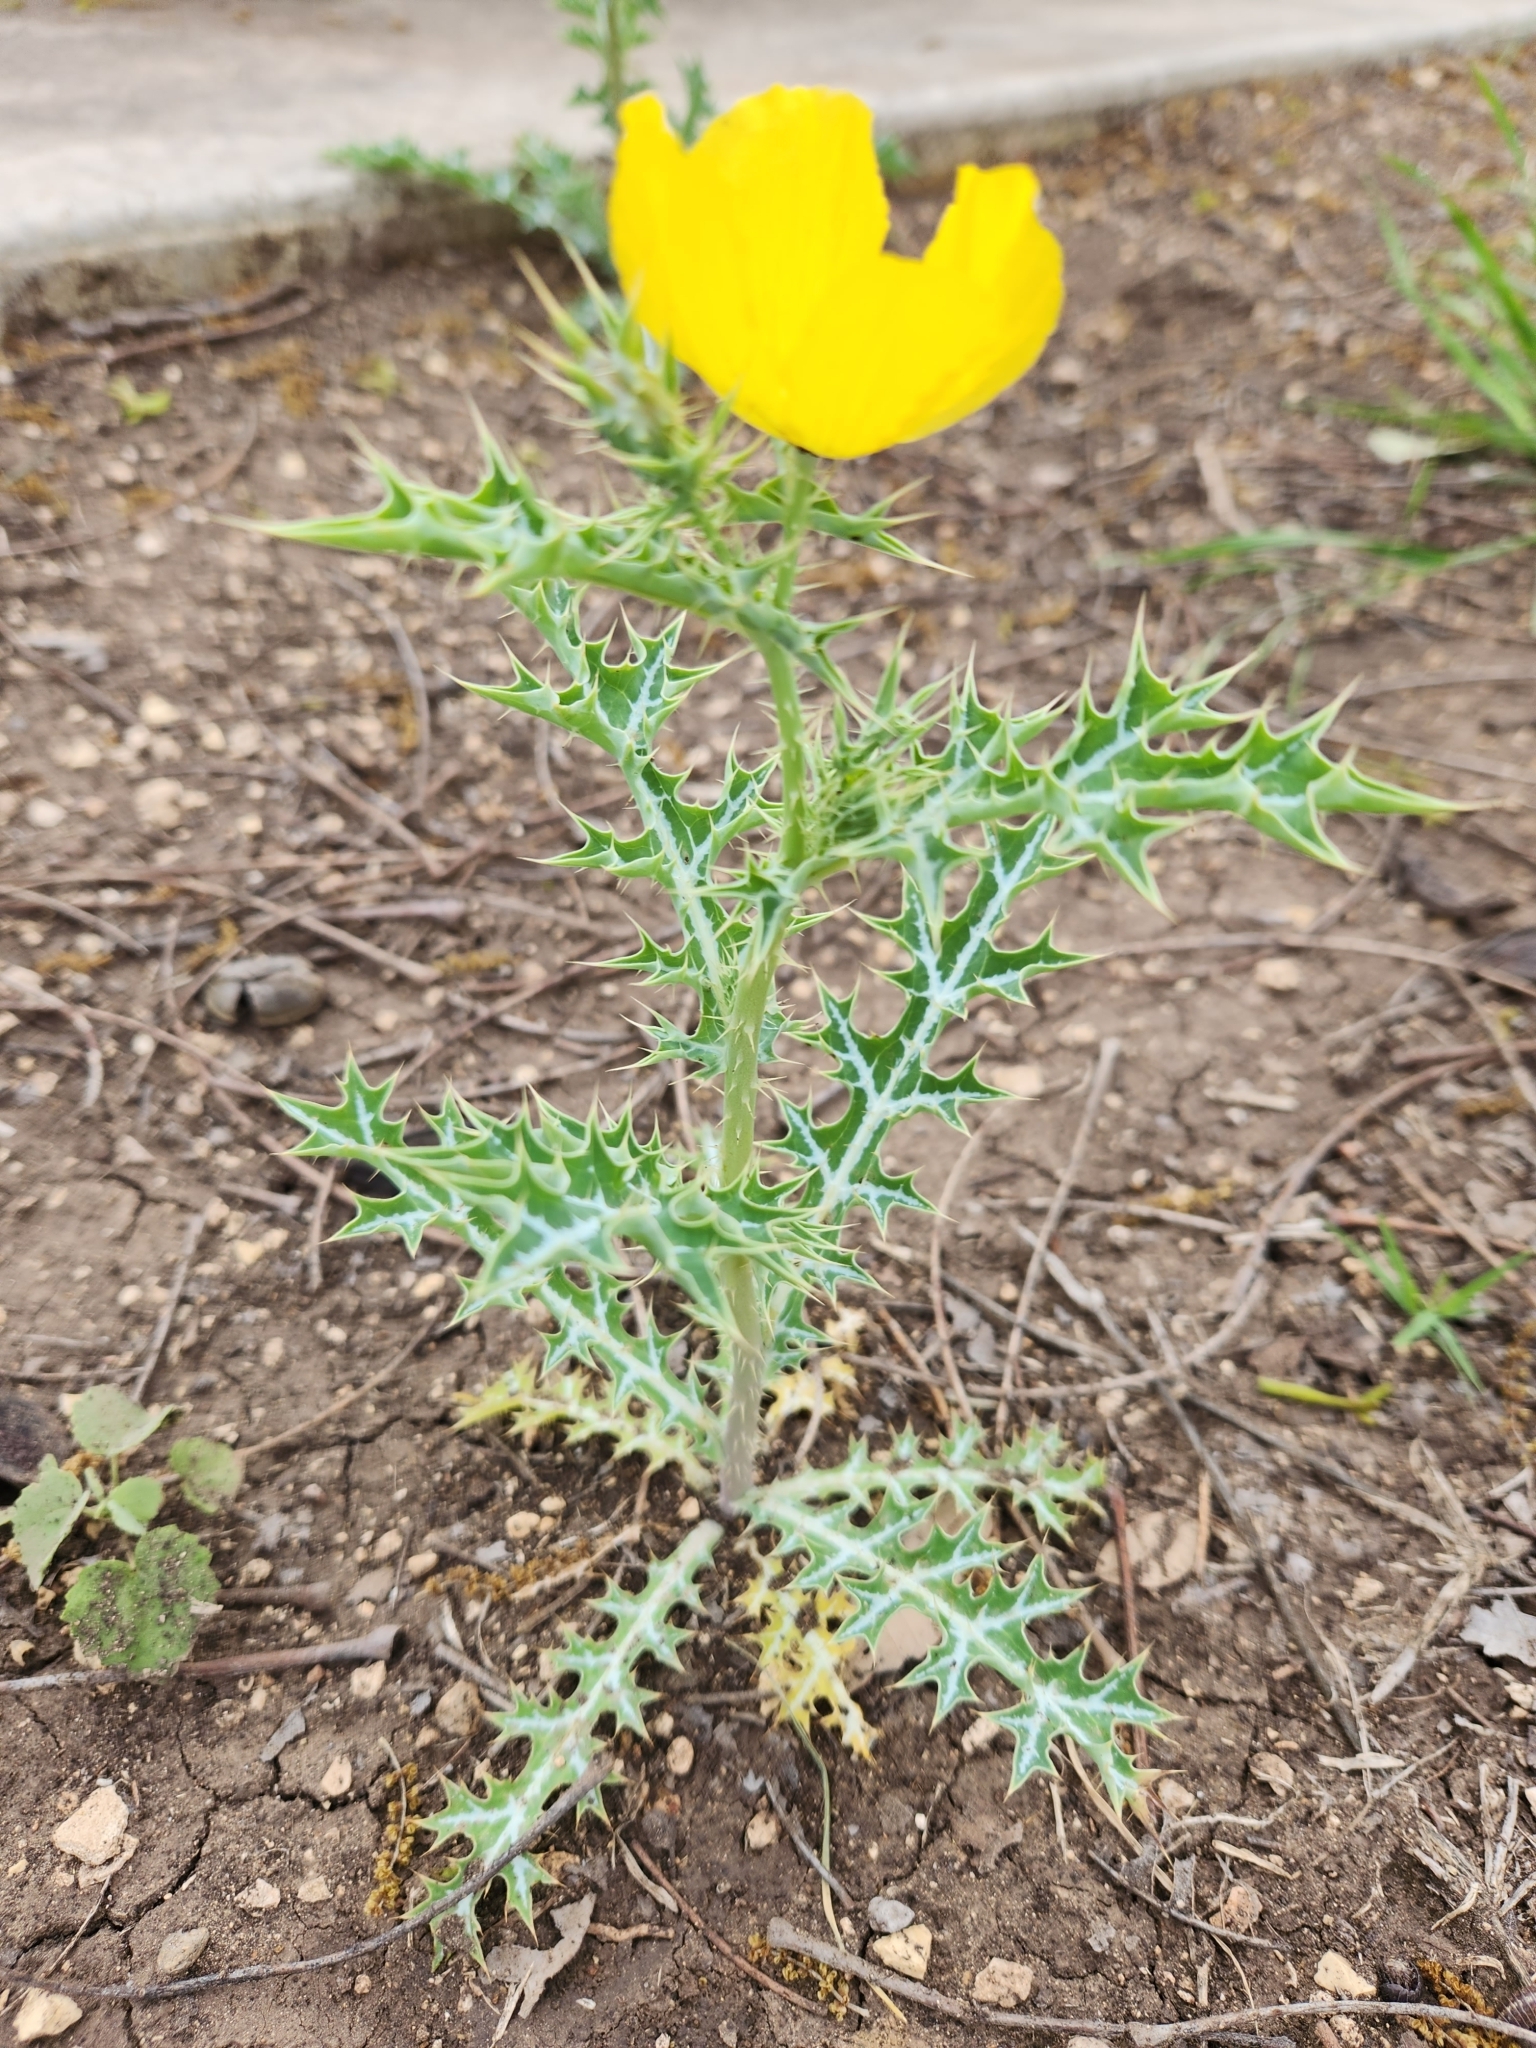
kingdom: Plantae
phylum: Tracheophyta
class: Magnoliopsida
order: Ranunculales
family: Papaveraceae
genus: Argemone
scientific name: Argemone mexicana
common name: Mexican poppy
